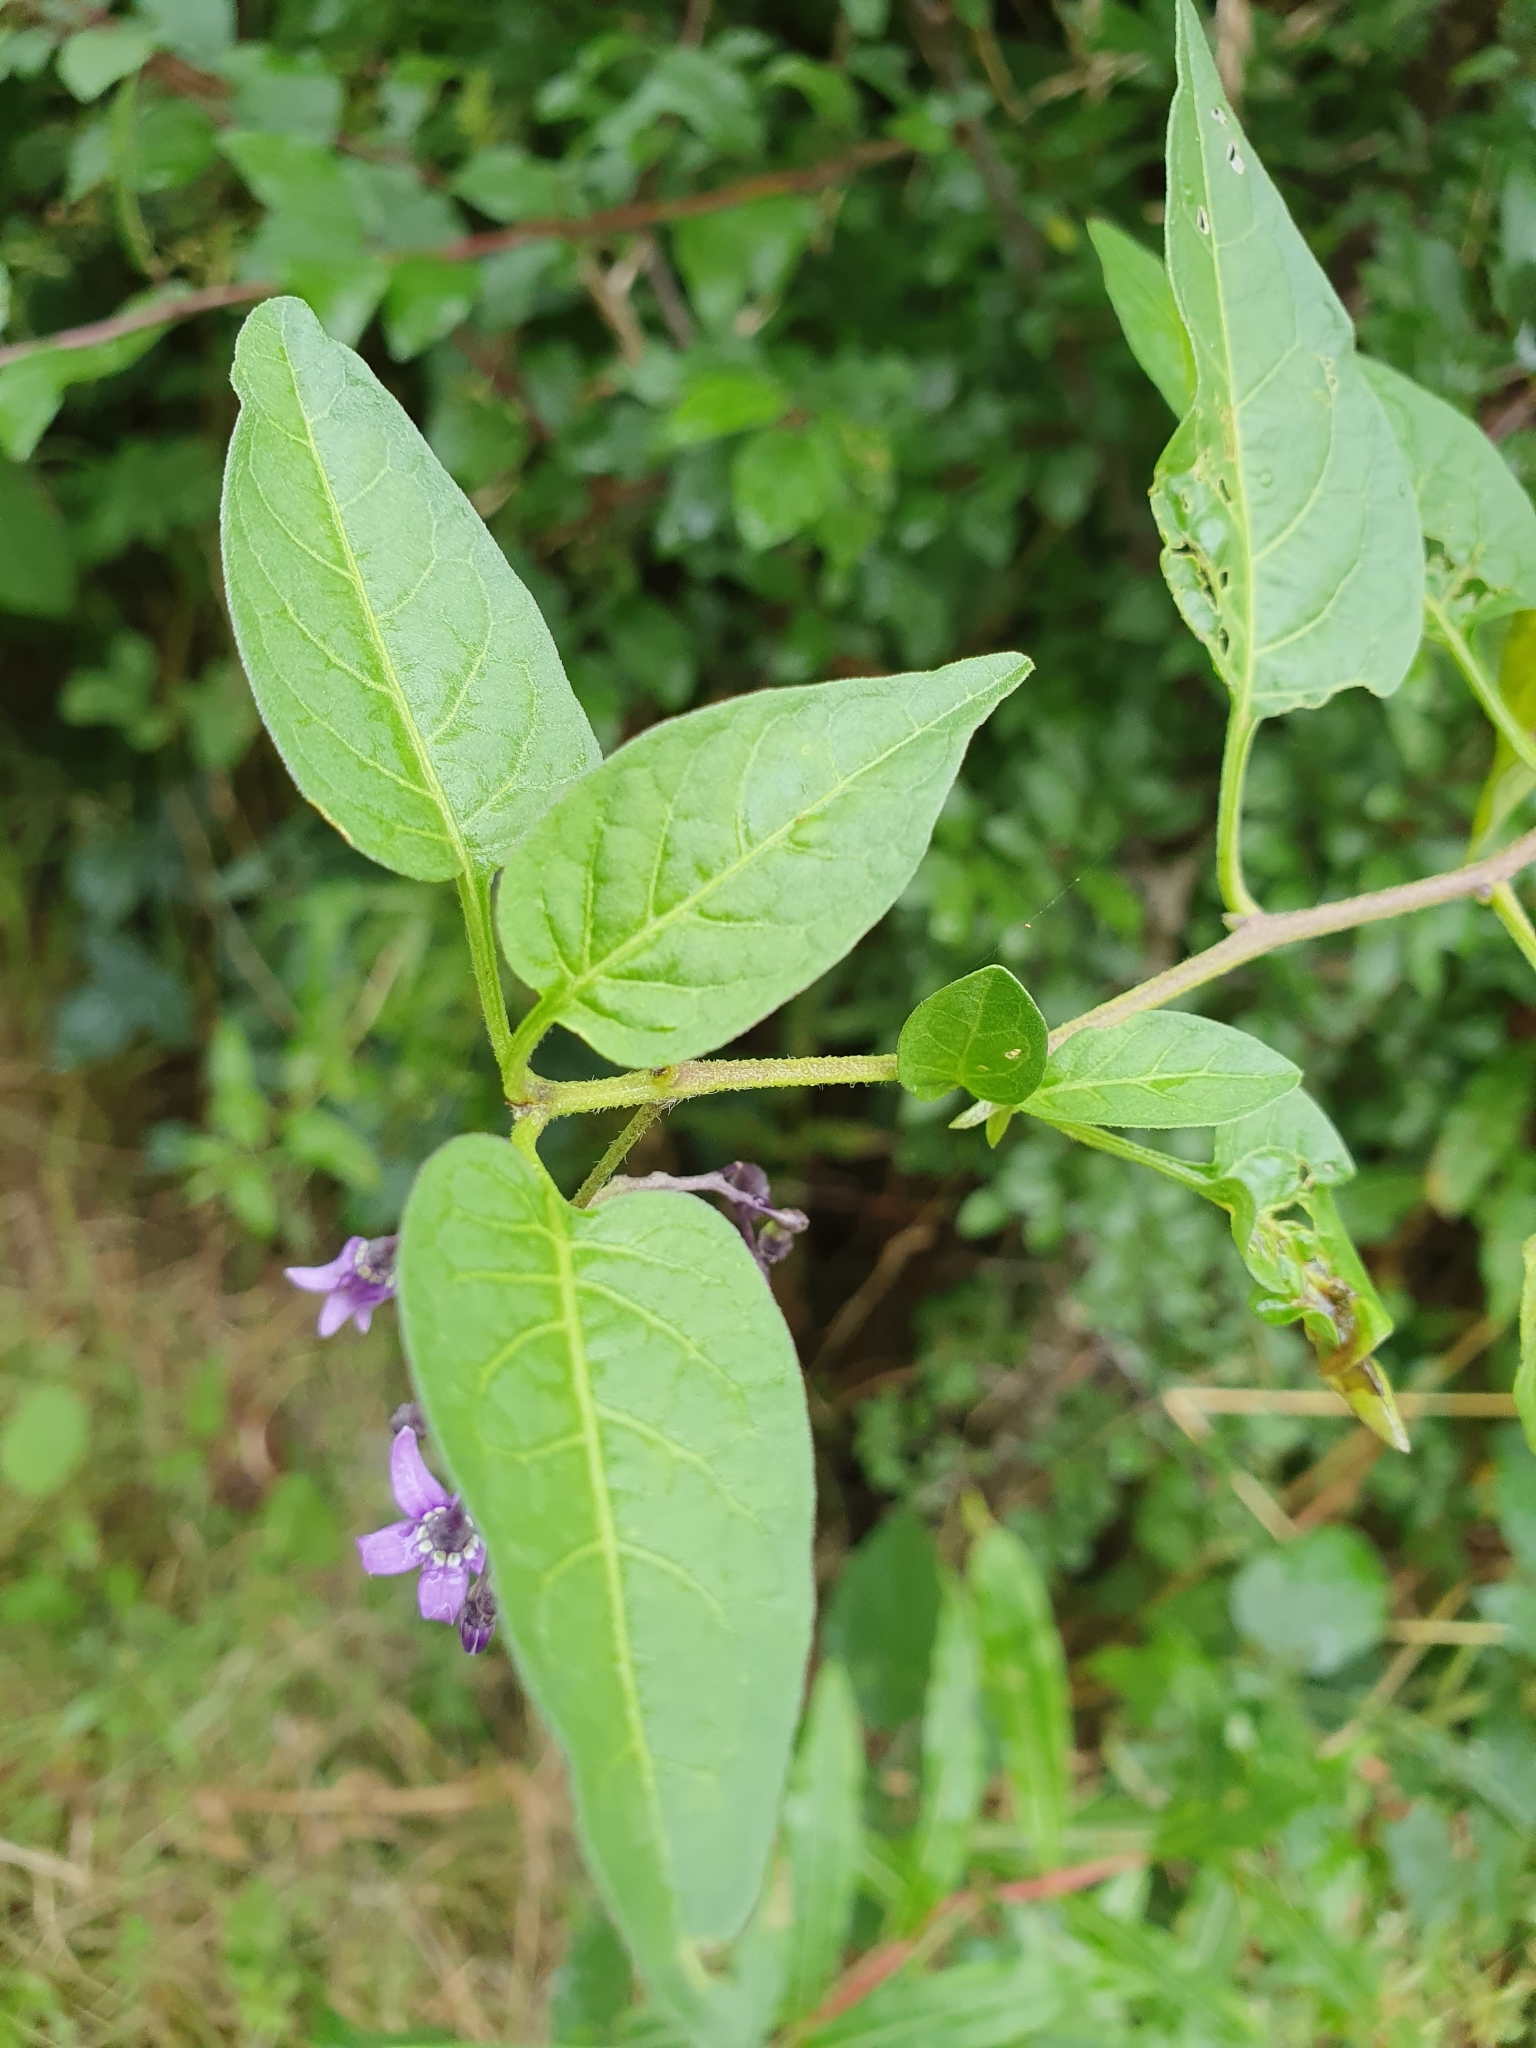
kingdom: Plantae
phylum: Tracheophyta
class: Magnoliopsida
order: Solanales
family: Solanaceae
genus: Solanum
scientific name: Solanum dulcamara
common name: Climbing nightshade
